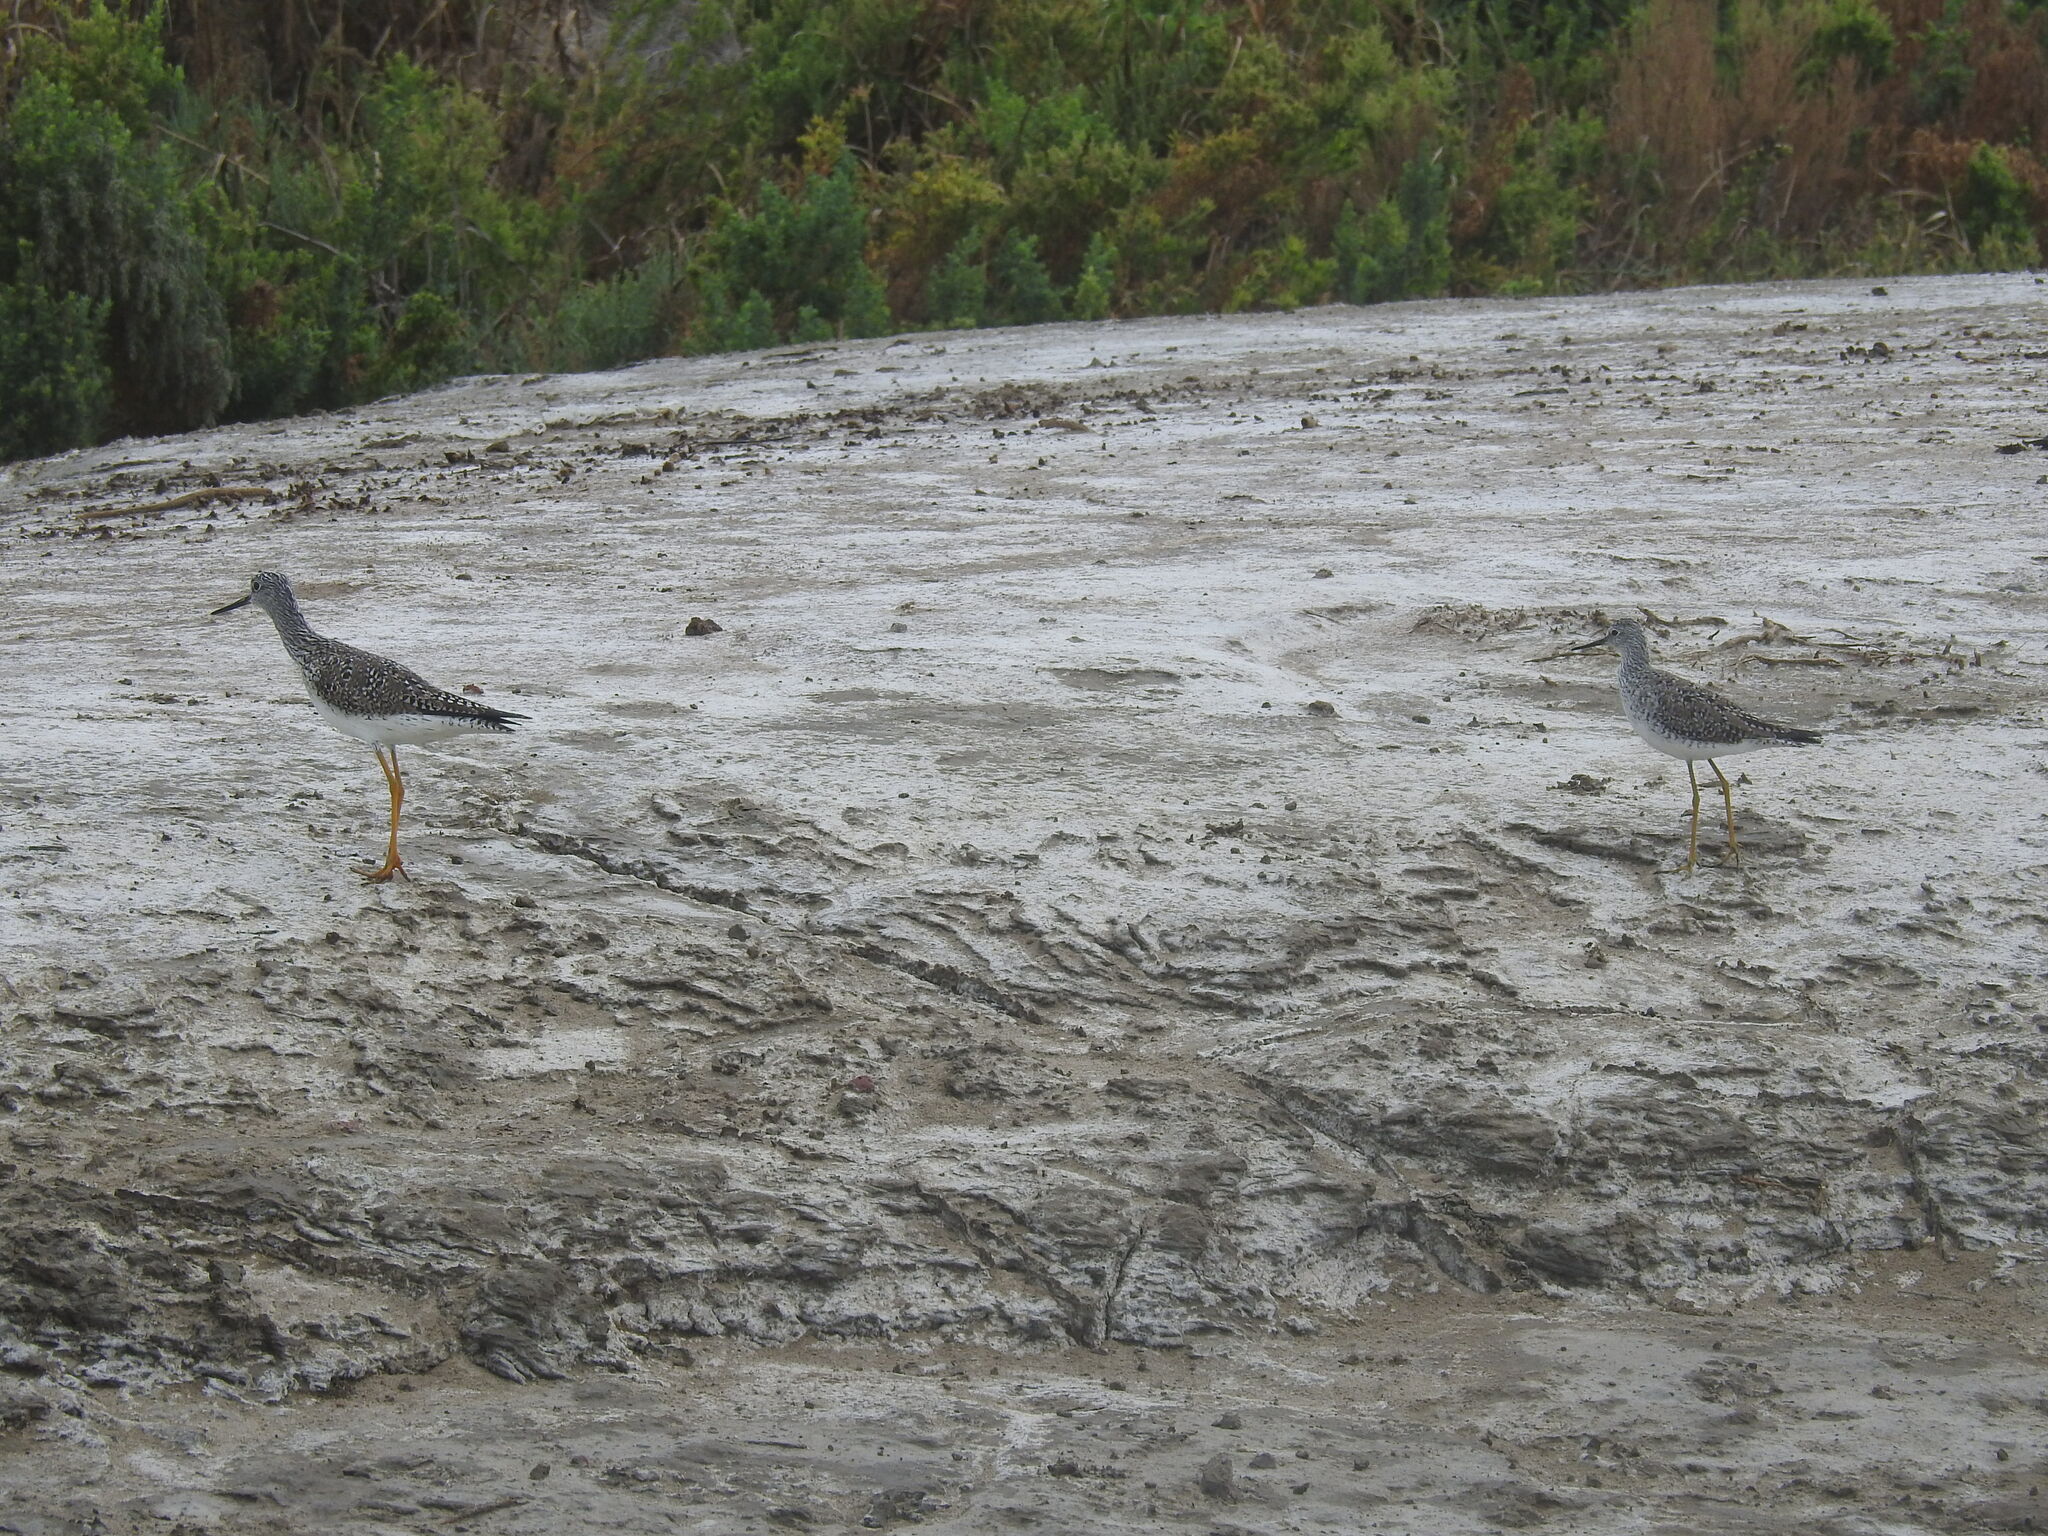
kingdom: Animalia
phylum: Chordata
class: Aves
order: Charadriiformes
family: Scolopacidae
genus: Tringa
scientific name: Tringa flavipes
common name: Lesser yellowlegs
